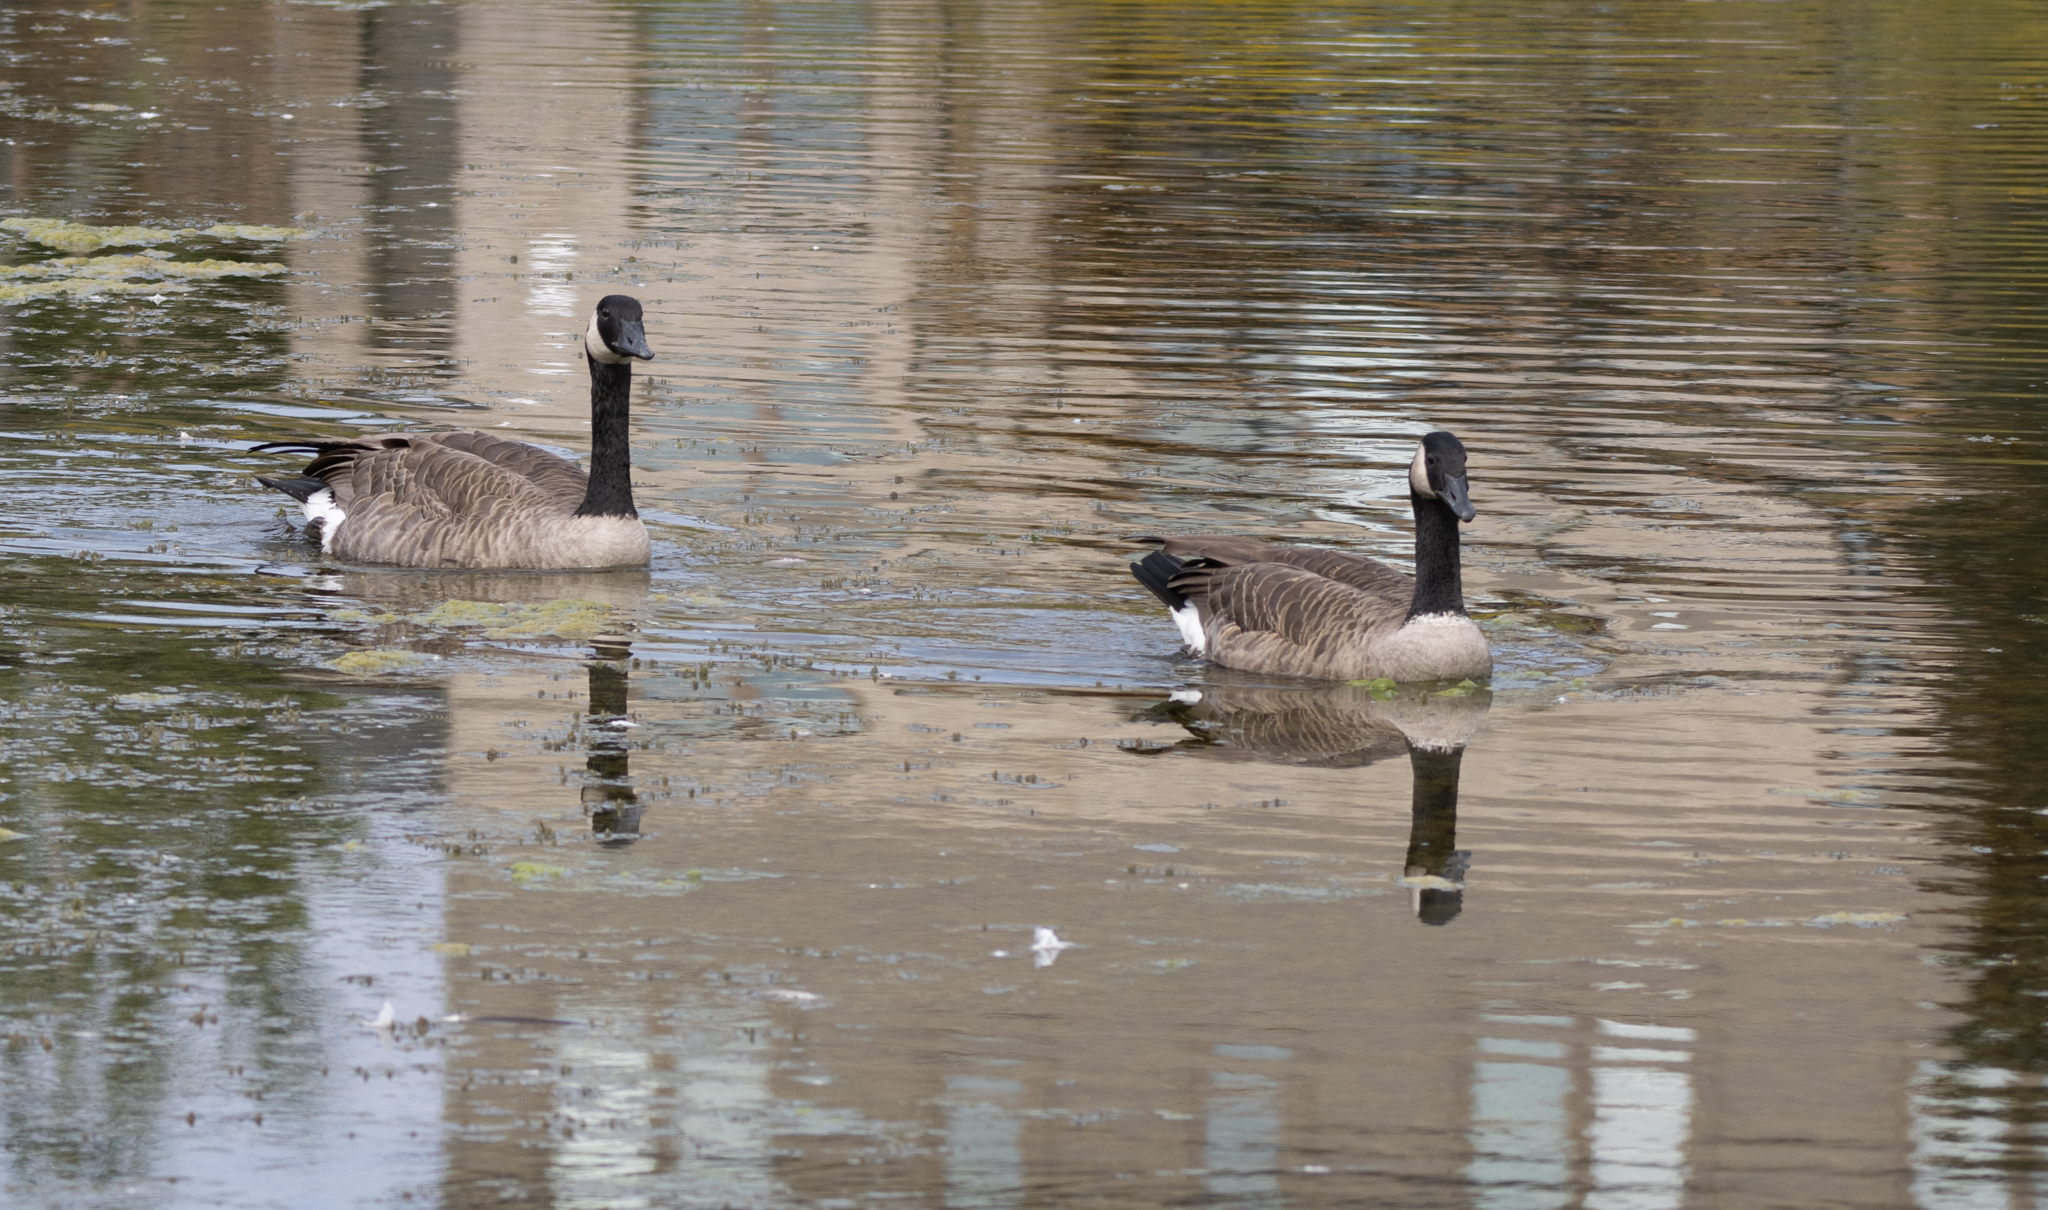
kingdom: Animalia
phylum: Chordata
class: Aves
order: Anseriformes
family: Anatidae
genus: Branta
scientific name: Branta canadensis
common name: Canada goose
